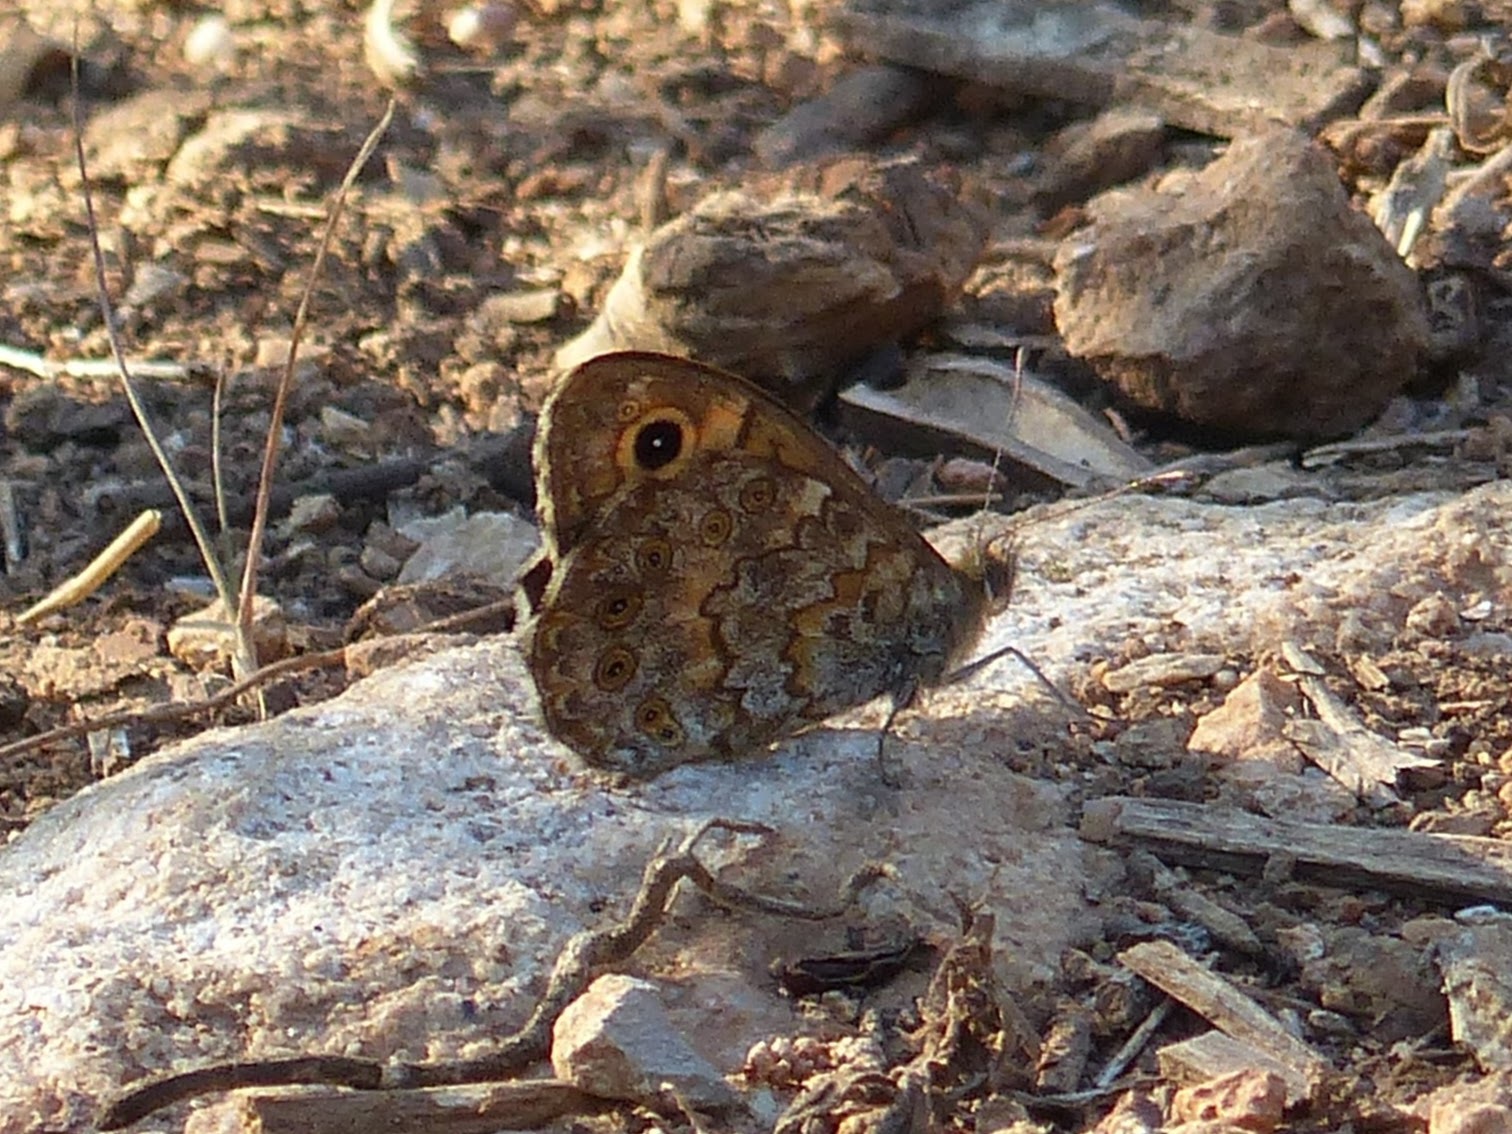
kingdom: Animalia
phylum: Arthropoda
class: Insecta
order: Lepidoptera
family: Nymphalidae
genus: Pararge
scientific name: Pararge Lasiommata megera
